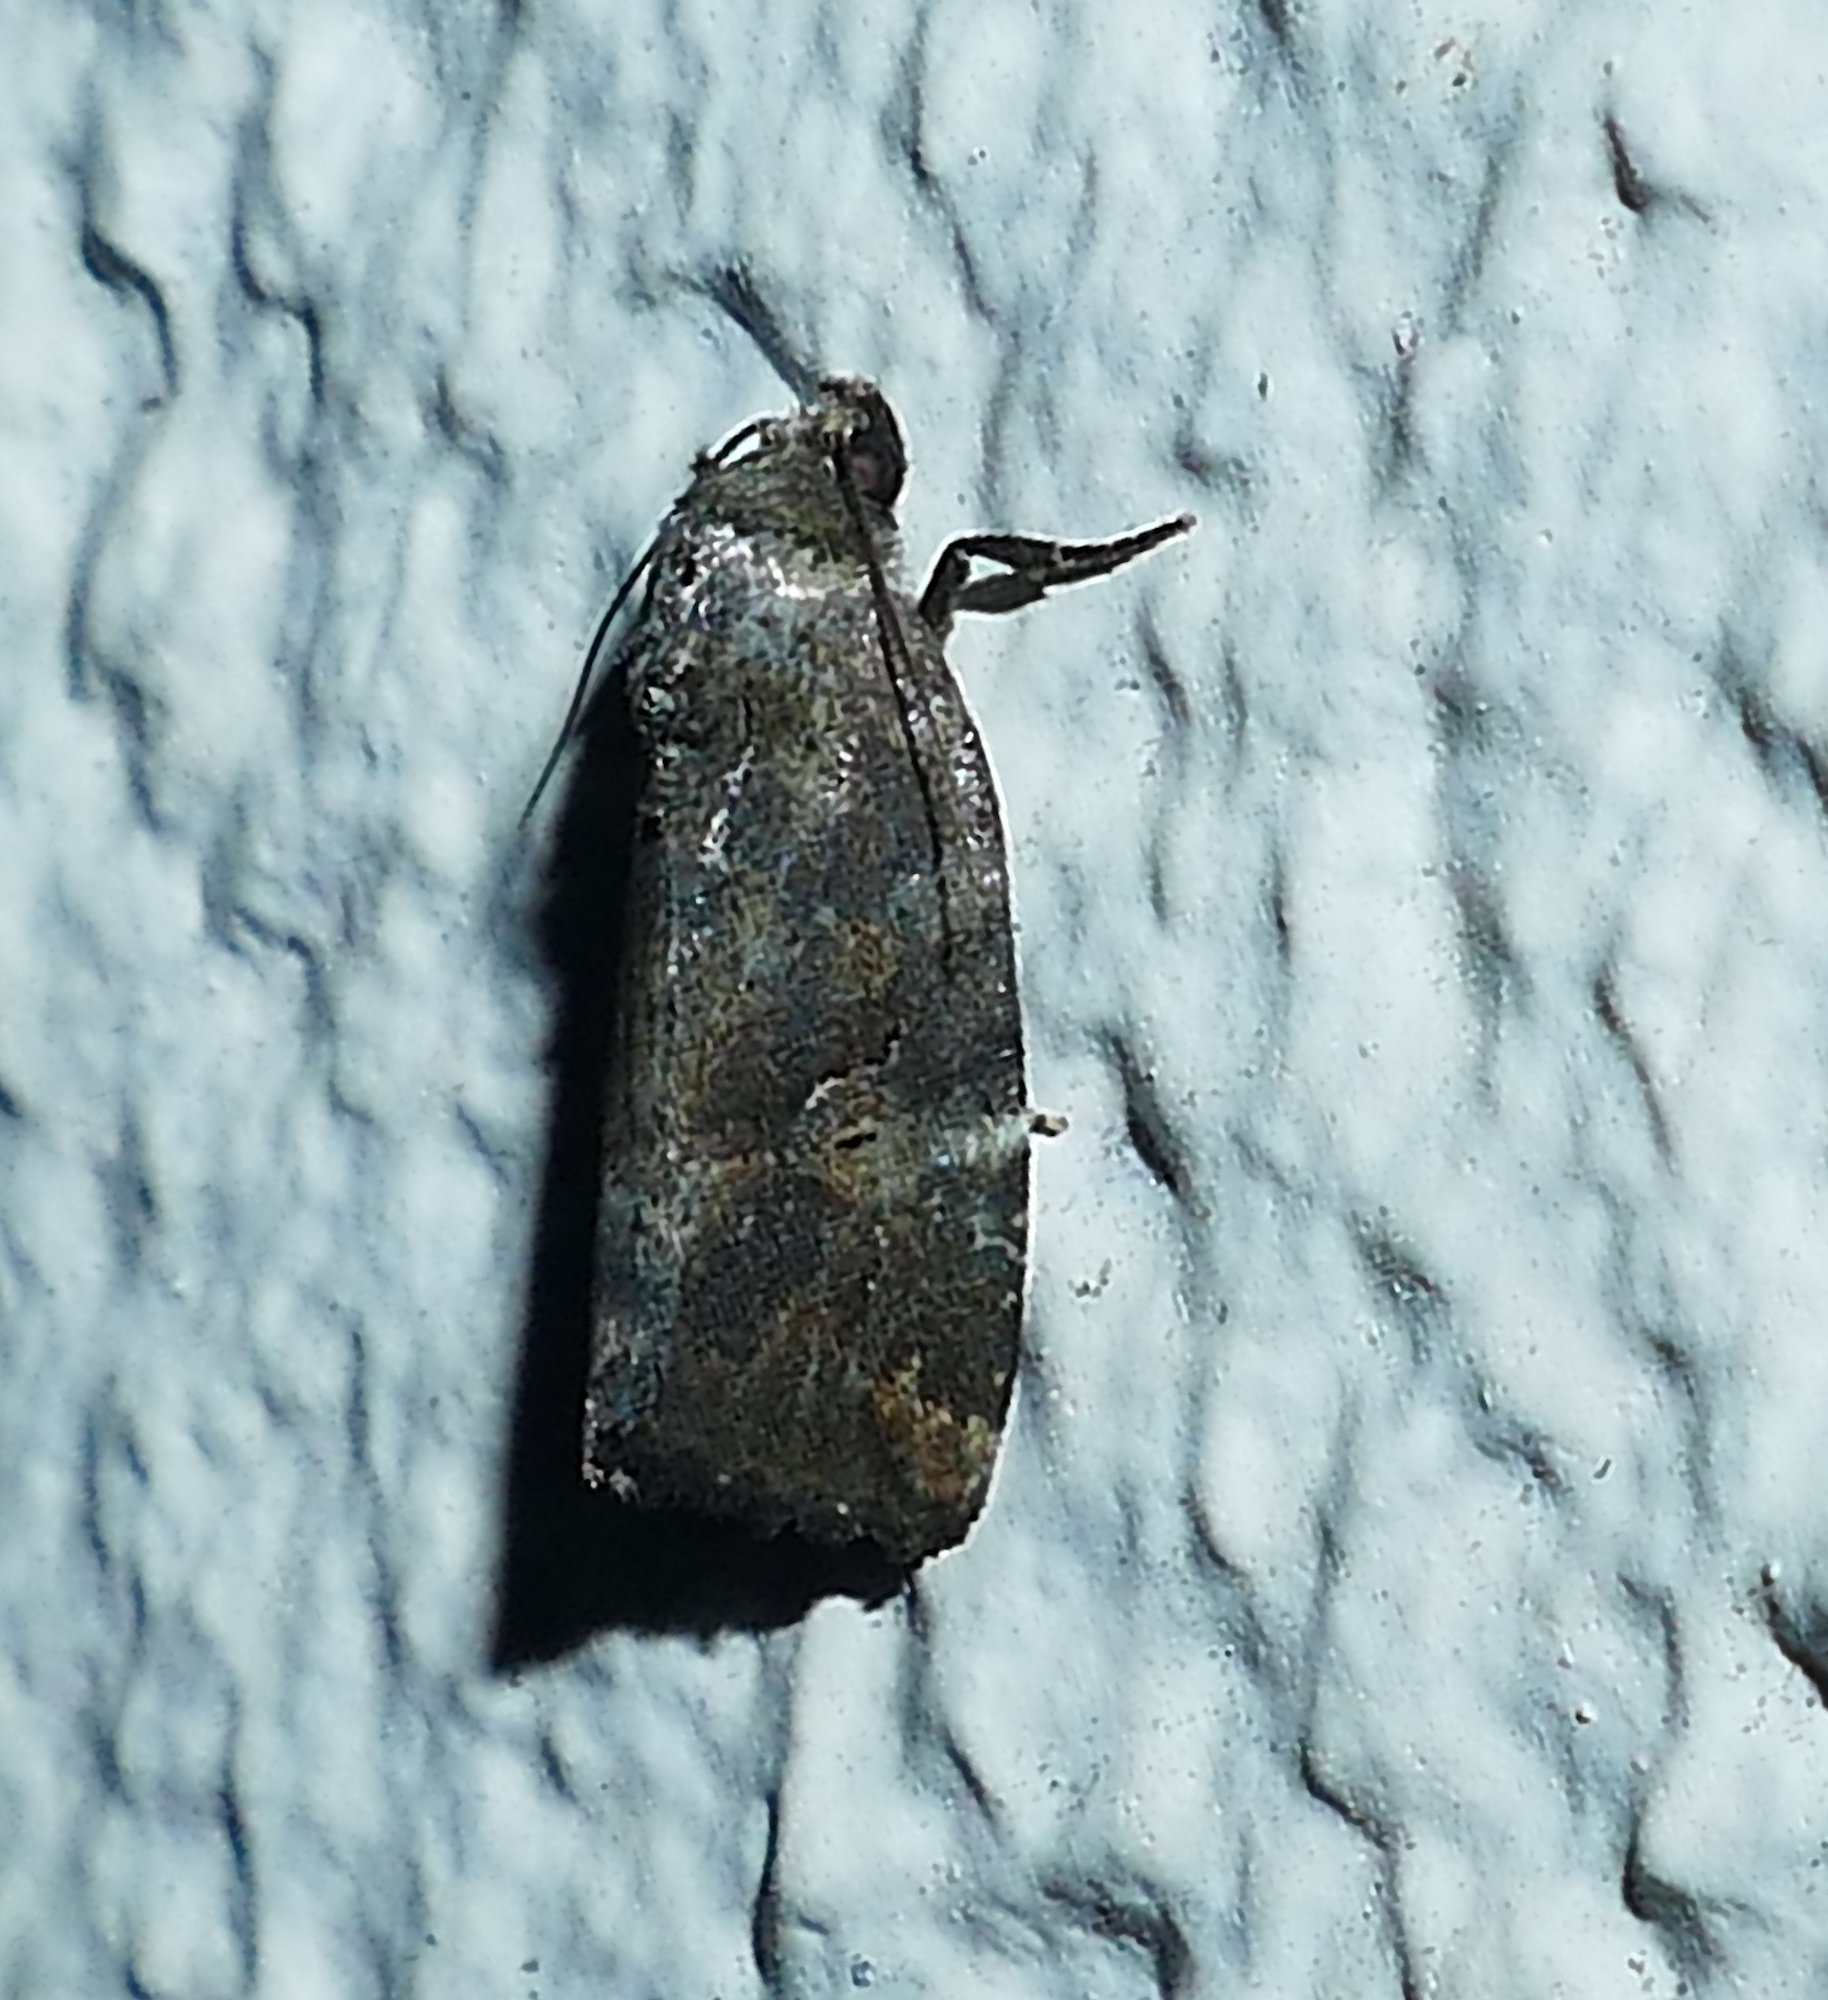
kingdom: Animalia
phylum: Arthropoda
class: Insecta
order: Lepidoptera
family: Noctuidae
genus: Elaphria
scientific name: Elaphria versicolor
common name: Fir harlequin
